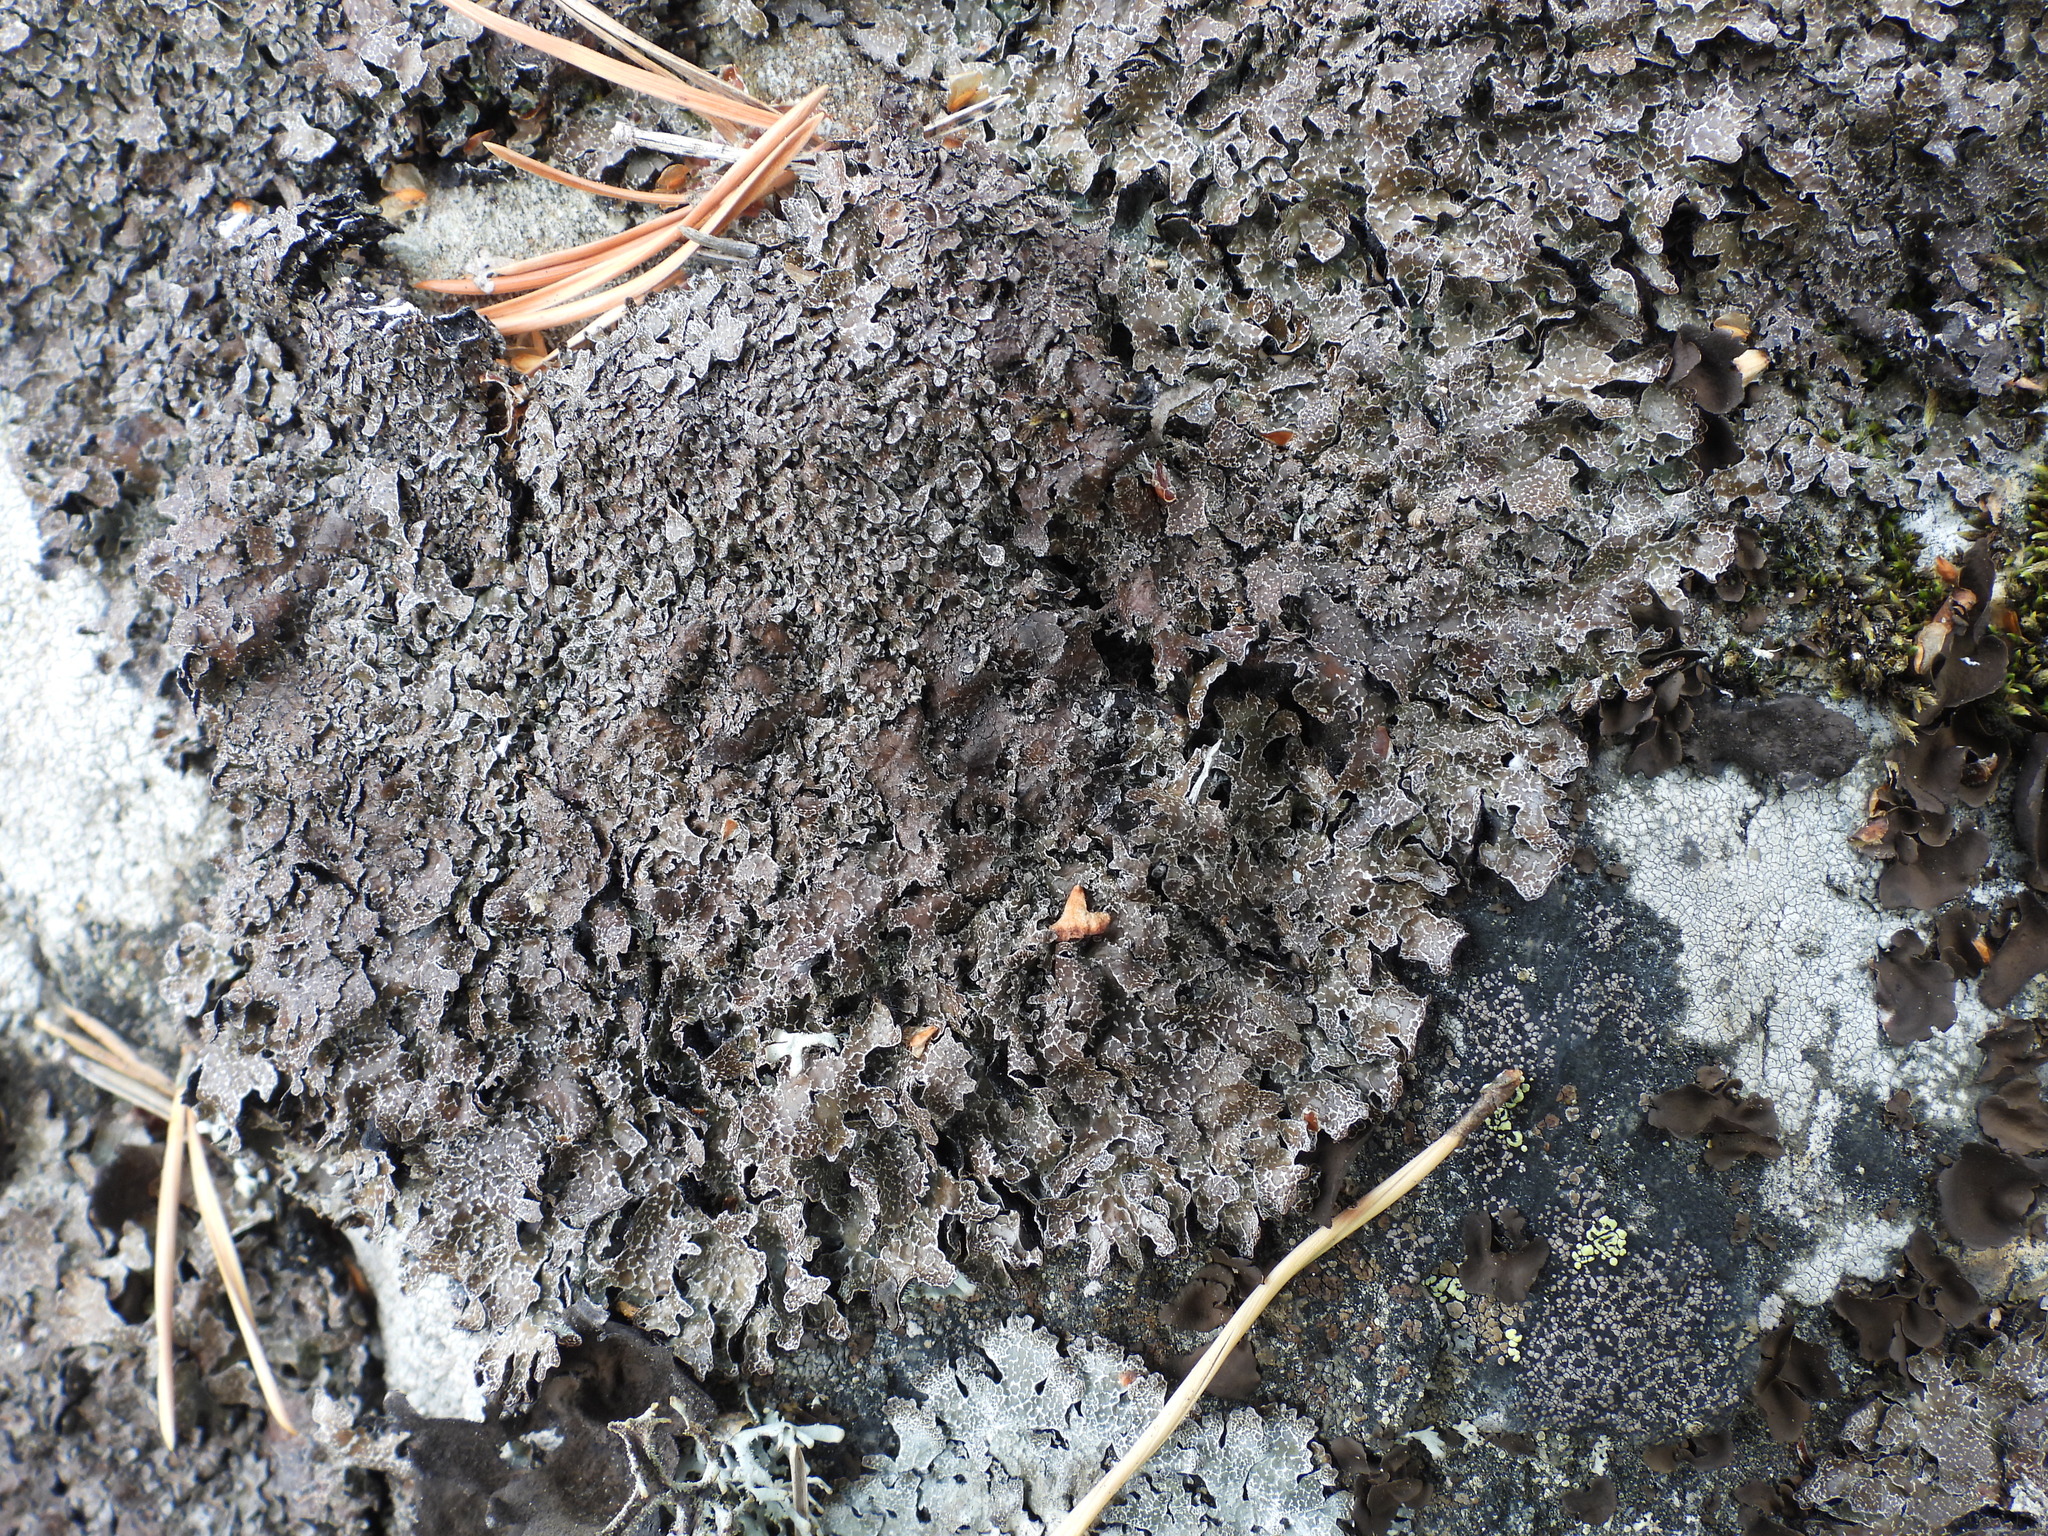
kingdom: Fungi
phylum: Ascomycota
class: Lecanoromycetes
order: Lecanorales
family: Parmeliaceae
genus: Parmelia
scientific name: Parmelia omphalodes
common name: Smoky crottle
